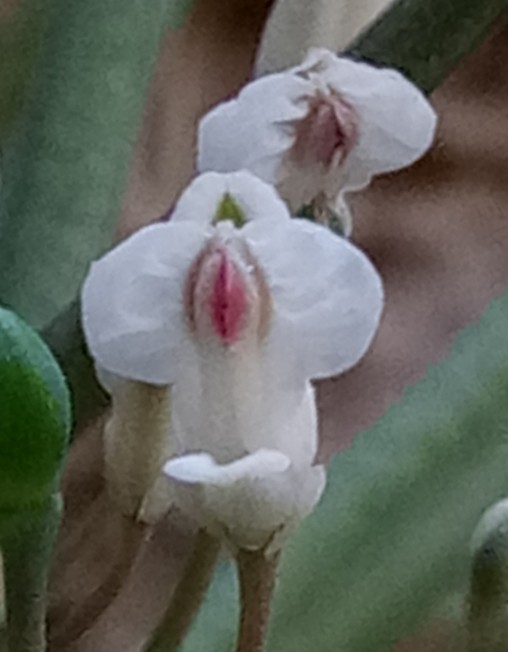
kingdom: Plantae
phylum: Tracheophyta
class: Magnoliopsida
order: Ranunculales
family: Papaveraceae
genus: Rupicapnos
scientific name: Rupicapnos numidica
